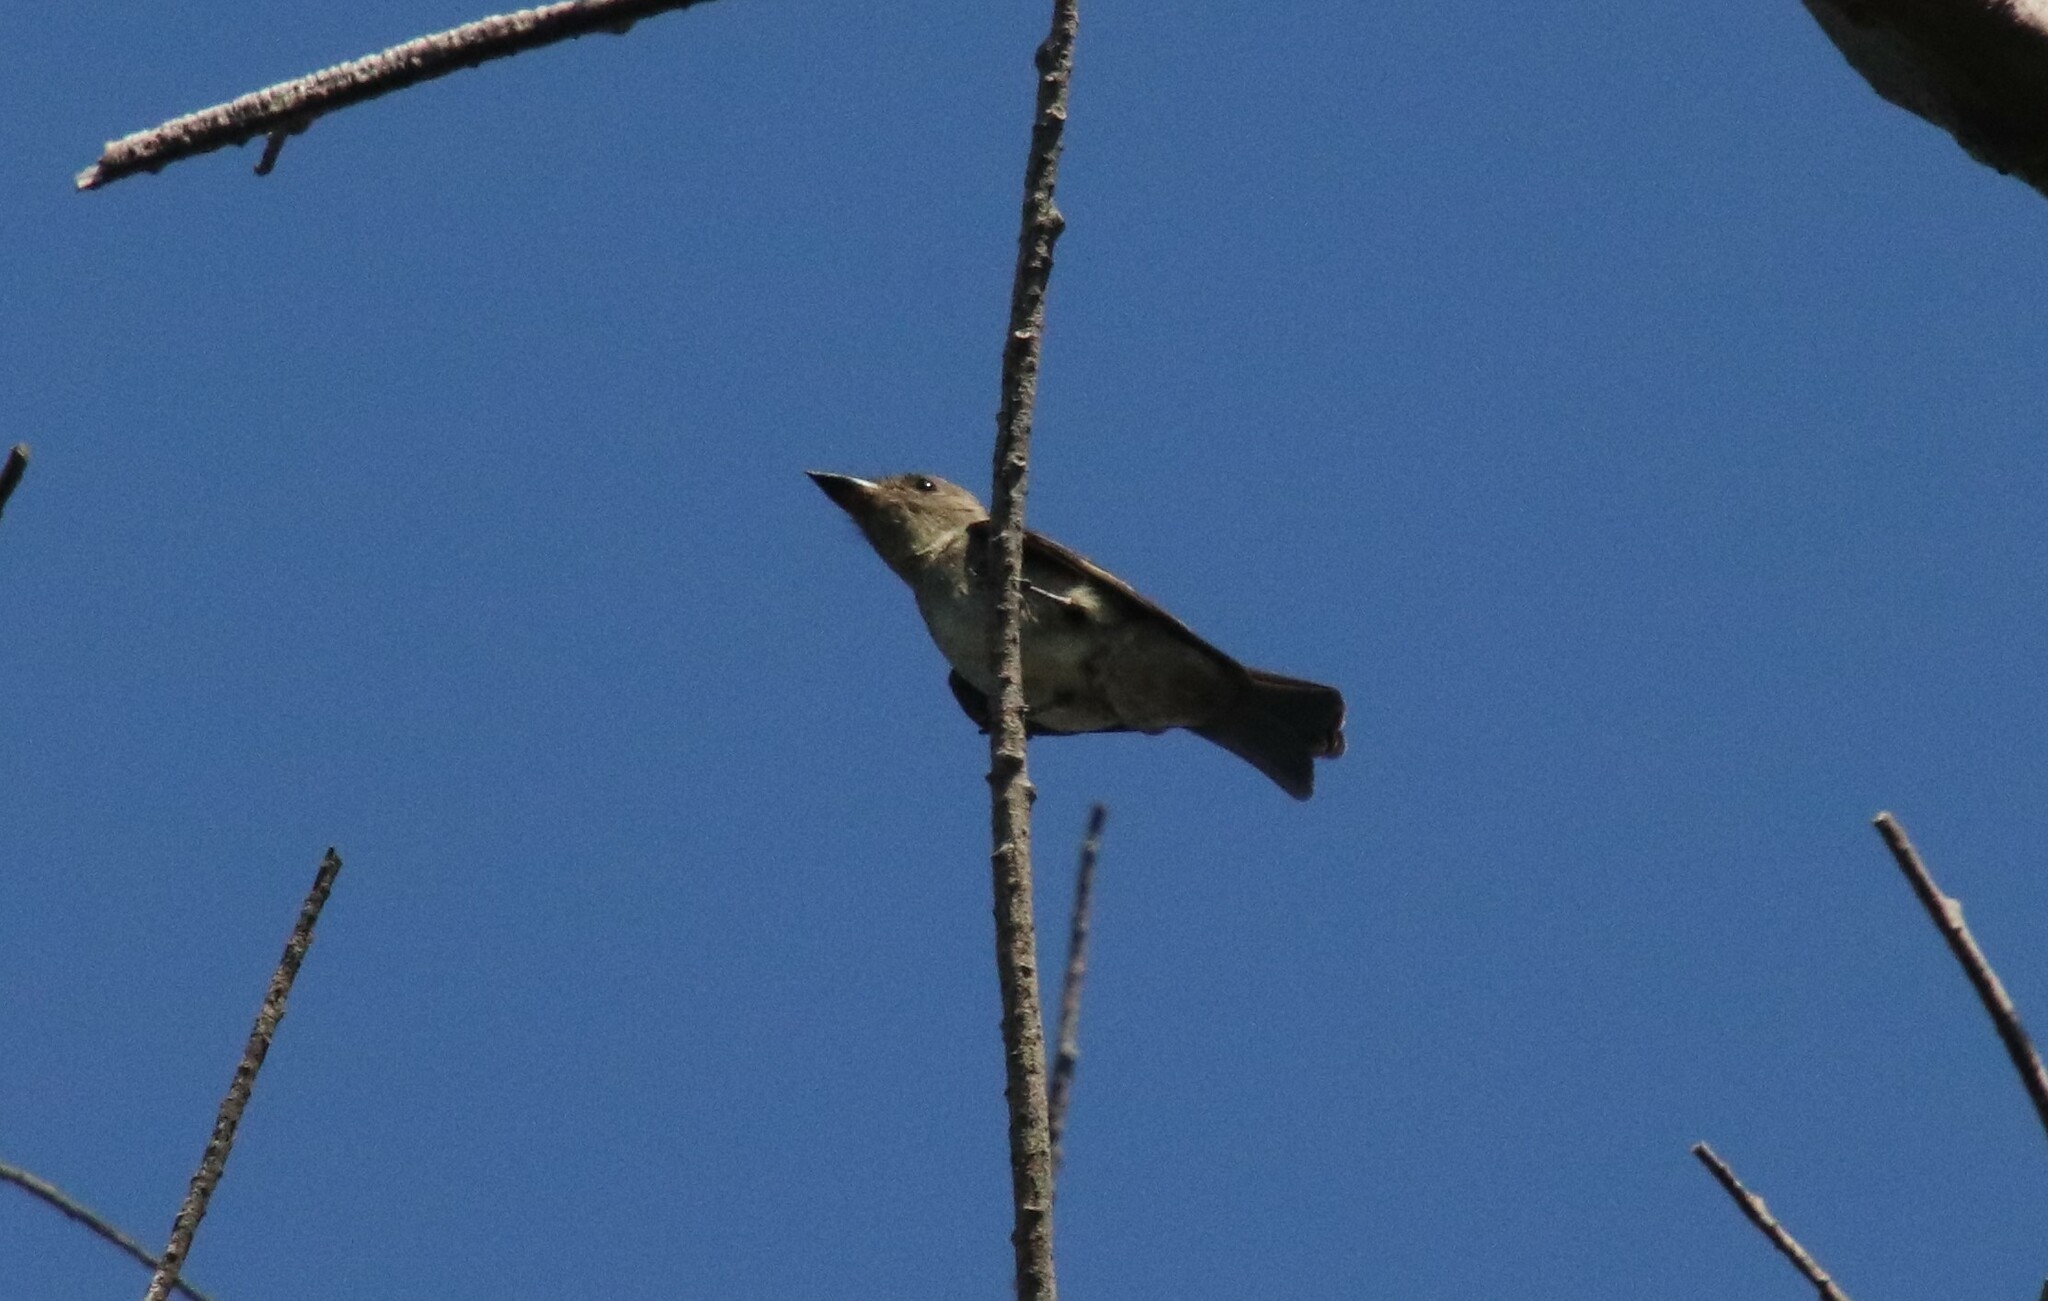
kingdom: Animalia
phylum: Chordata
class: Aves
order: Passeriformes
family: Tyrannidae
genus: Contopus
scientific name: Contopus sordidulus
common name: Western wood-pewee
